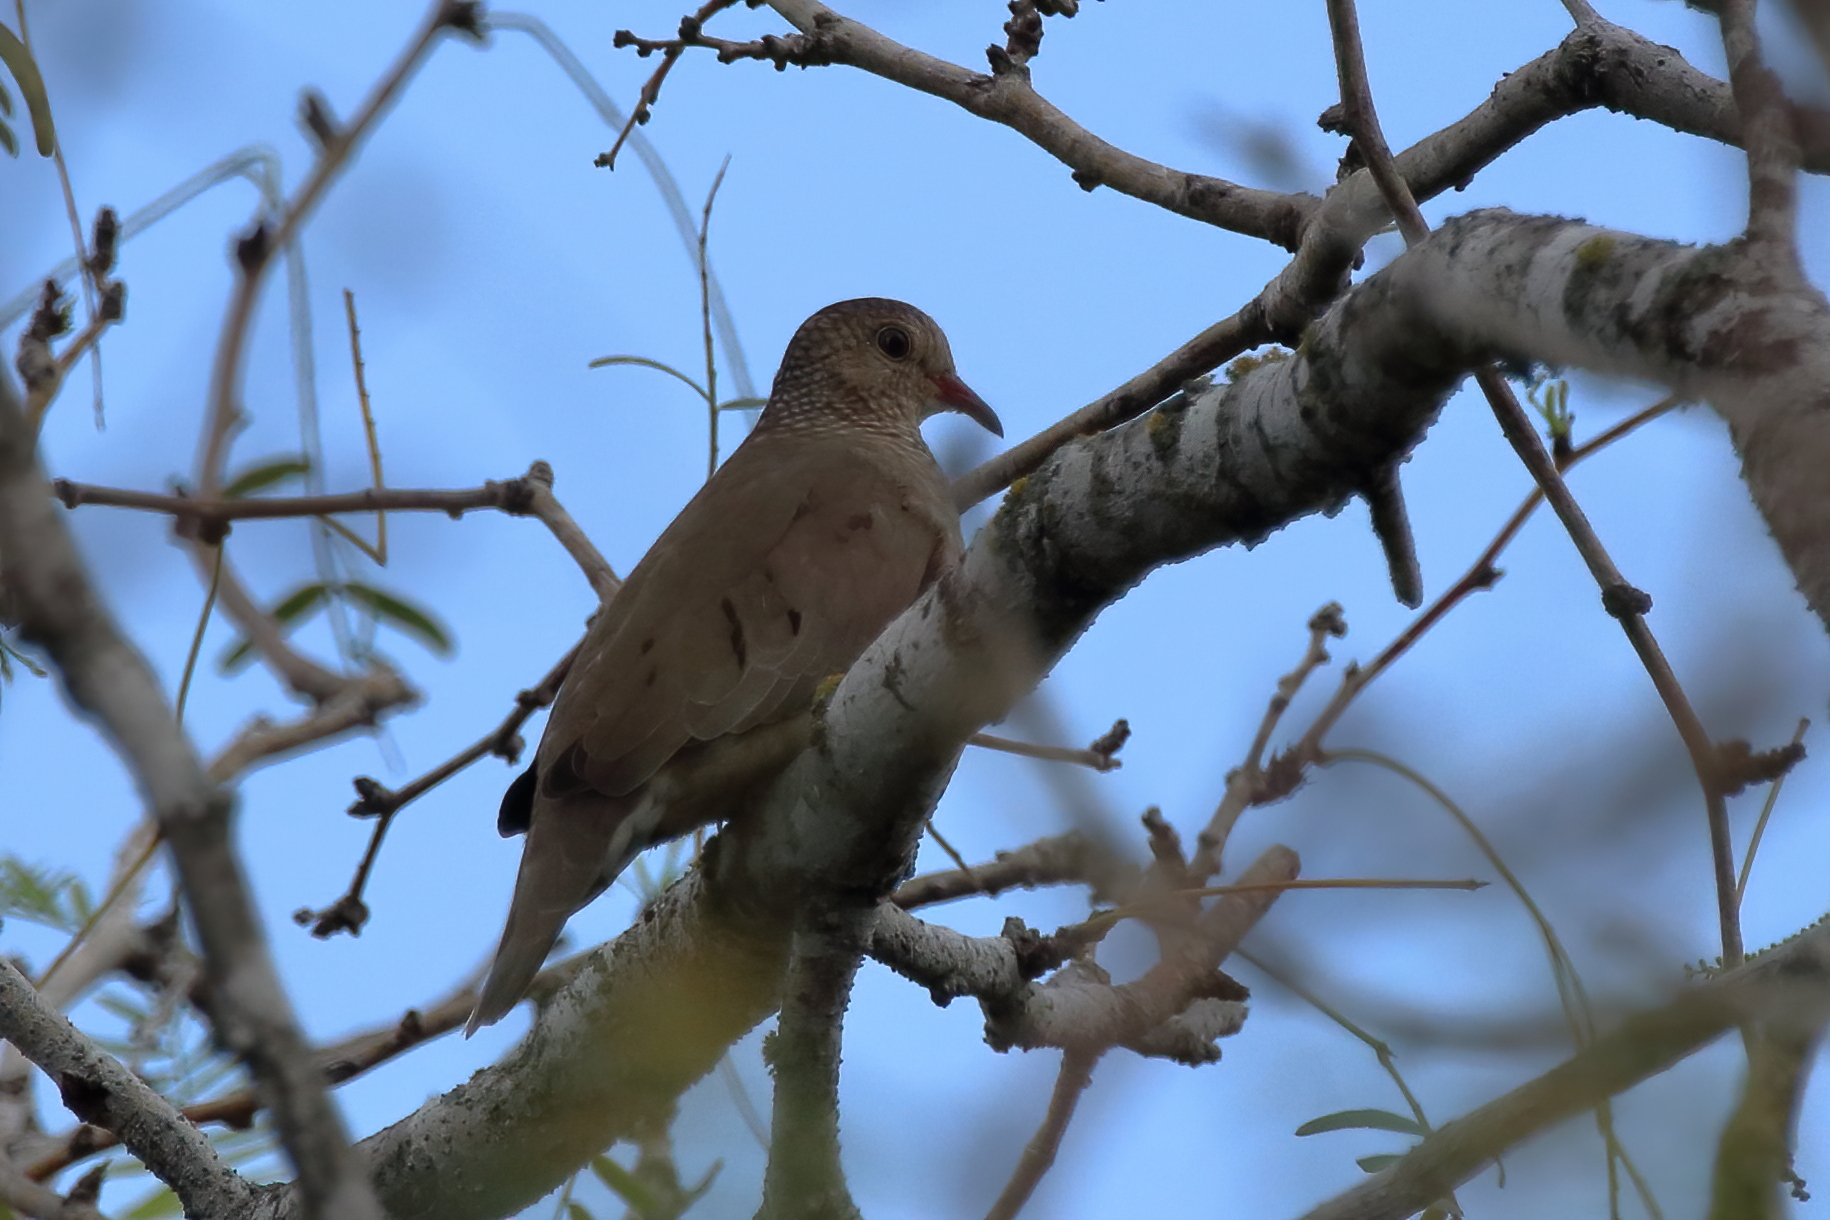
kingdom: Animalia
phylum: Chordata
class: Aves
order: Columbiformes
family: Columbidae
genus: Columbina
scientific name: Columbina passerina
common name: Common ground-dove
